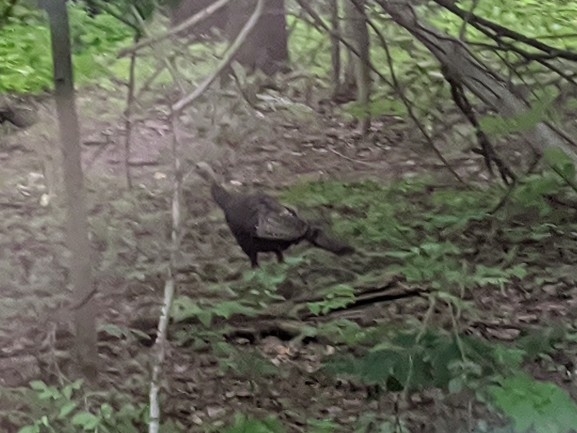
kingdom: Animalia
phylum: Chordata
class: Aves
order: Galliformes
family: Phasianidae
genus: Meleagris
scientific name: Meleagris gallopavo
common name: Wild turkey
